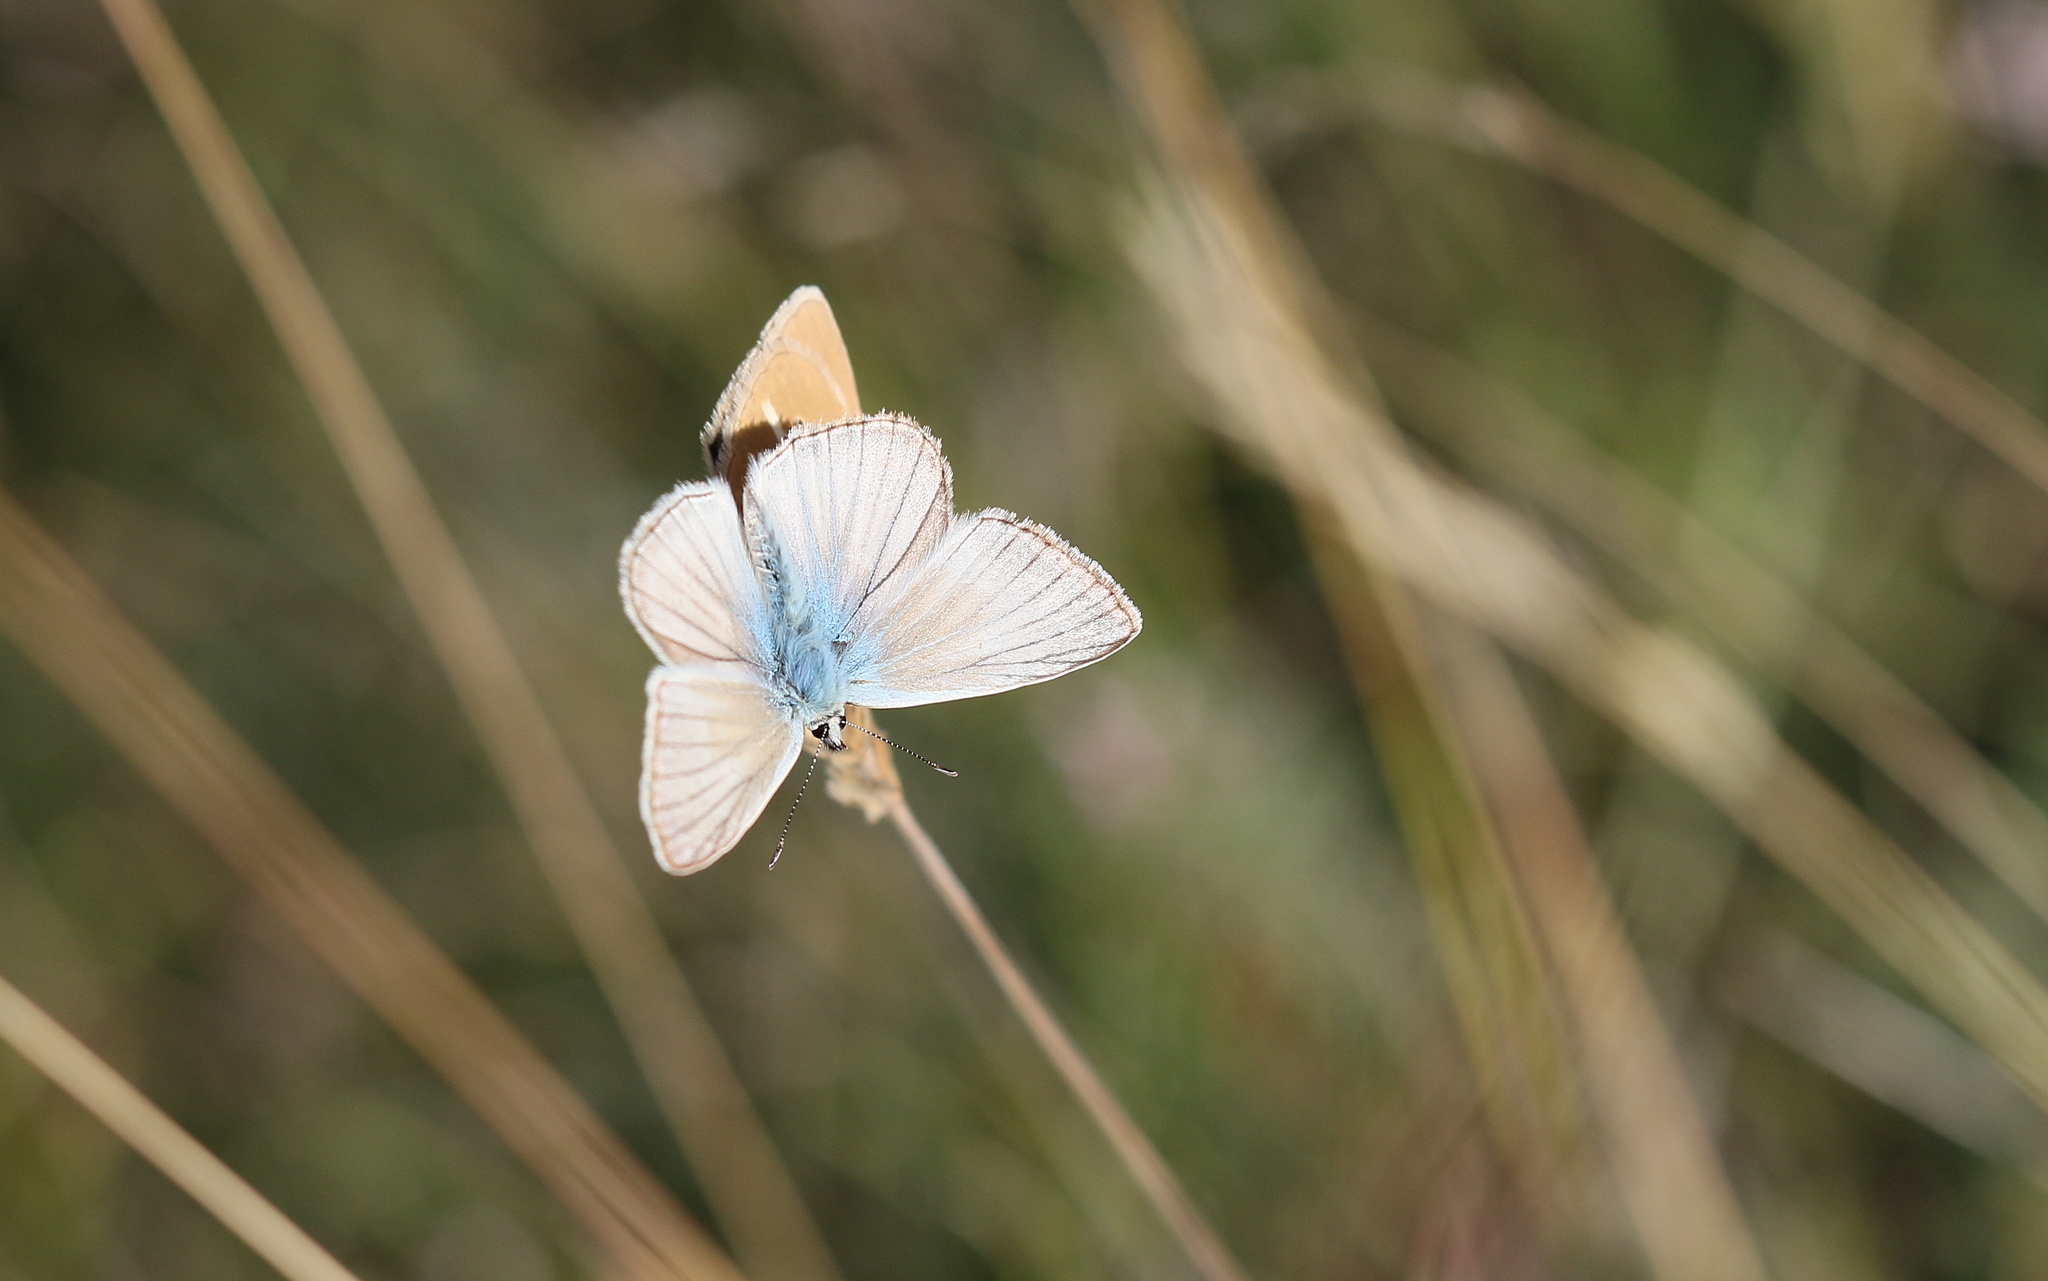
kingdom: Animalia
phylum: Arthropoda
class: Insecta
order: Lepidoptera
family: Lycaenidae
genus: Agrodiaetus
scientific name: Agrodiaetus dolus
